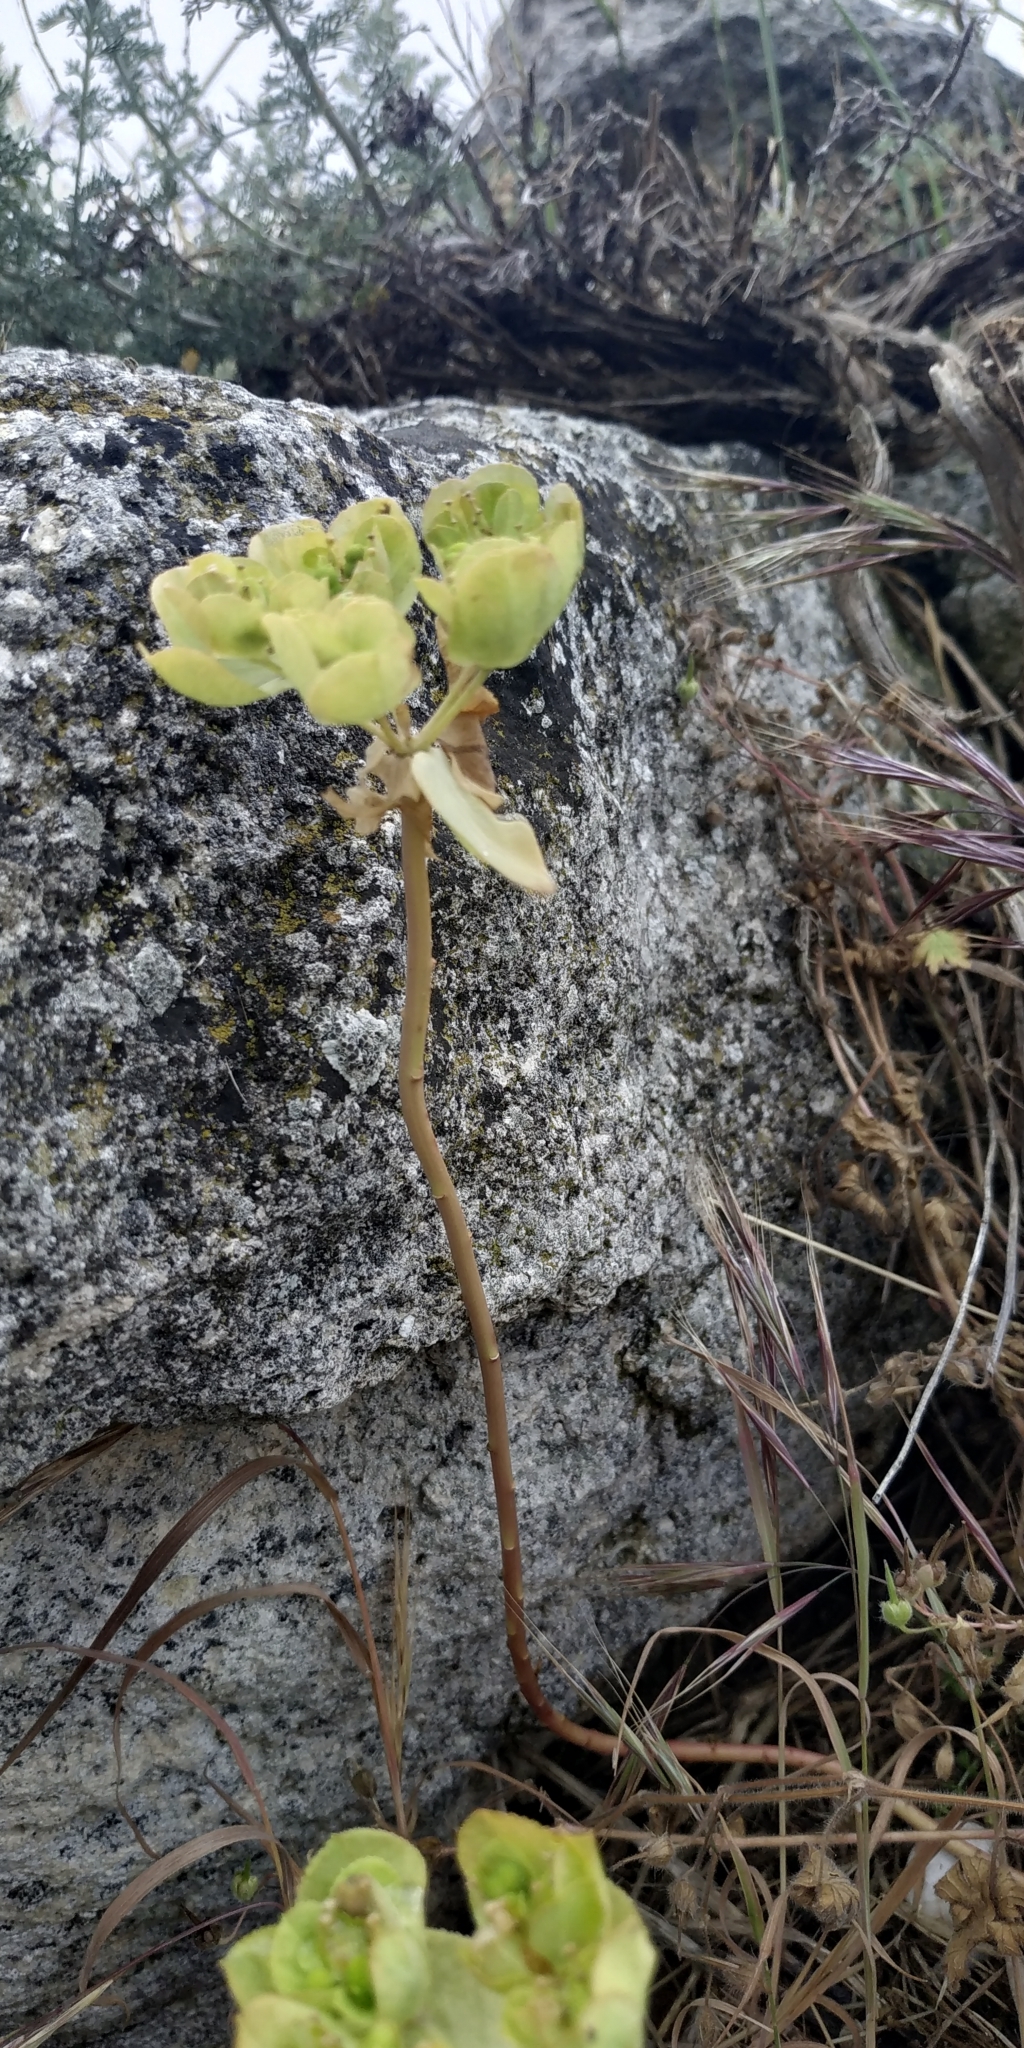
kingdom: Plantae
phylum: Tracheophyta
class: Magnoliopsida
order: Malpighiales
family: Euphorbiaceae
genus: Euphorbia
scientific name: Euphorbia helioscopia
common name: Sun spurge
